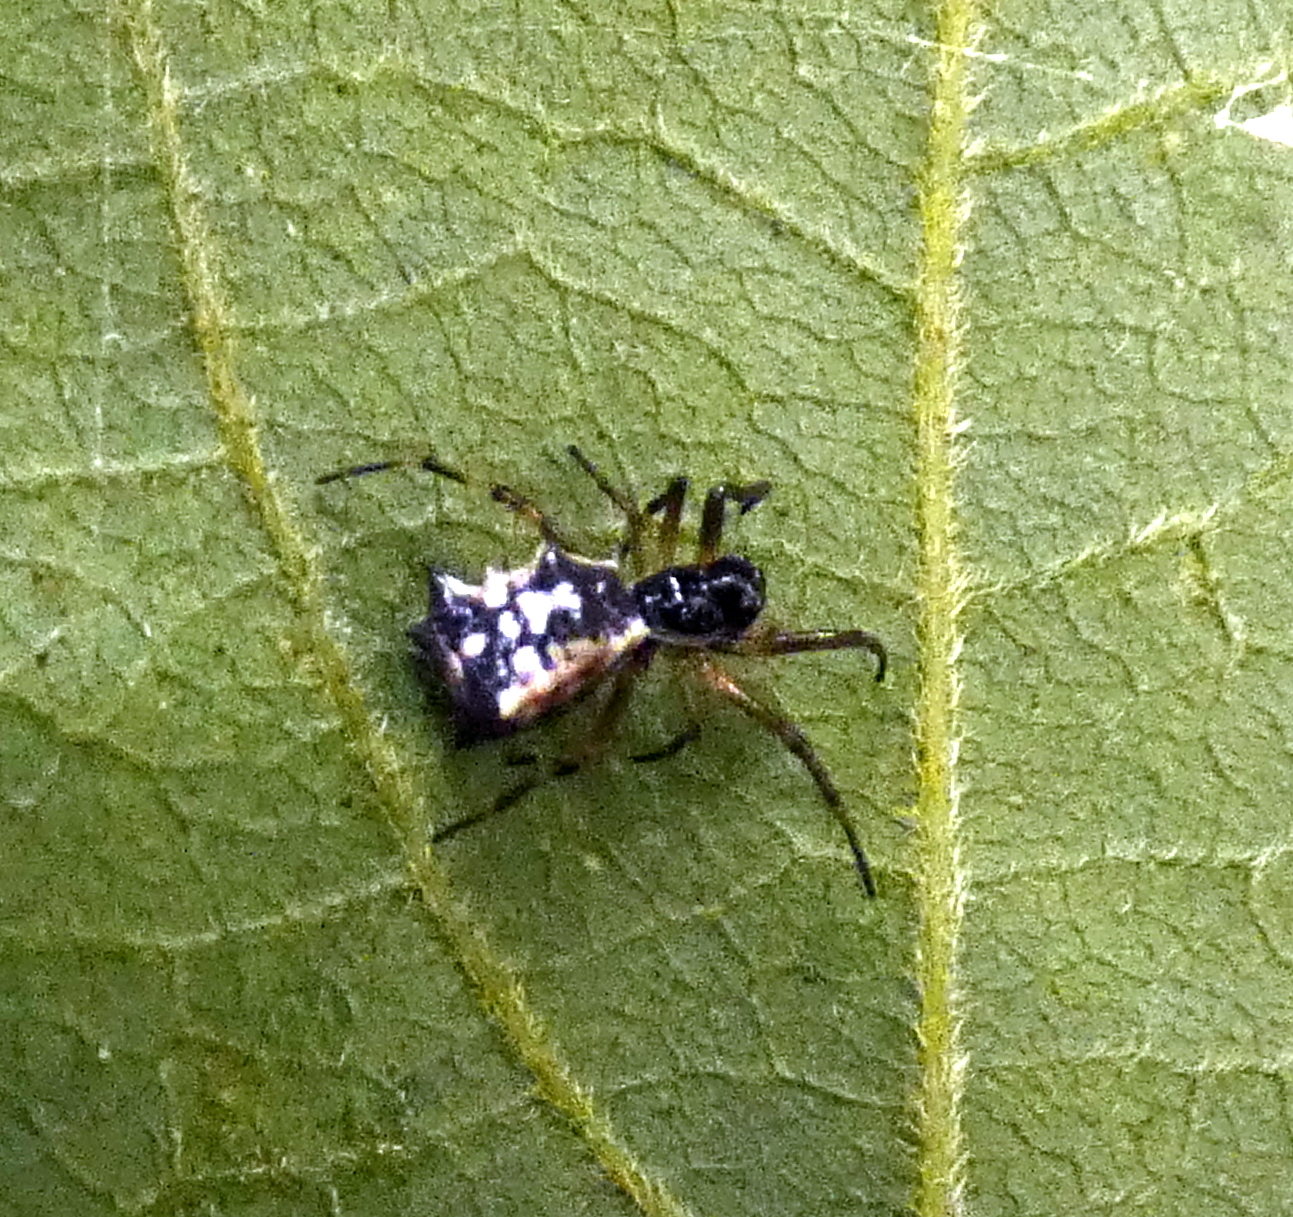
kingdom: Animalia
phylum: Arthropoda
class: Arachnida
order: Araneae
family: Araneidae
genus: Micrathena
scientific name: Micrathena picta
